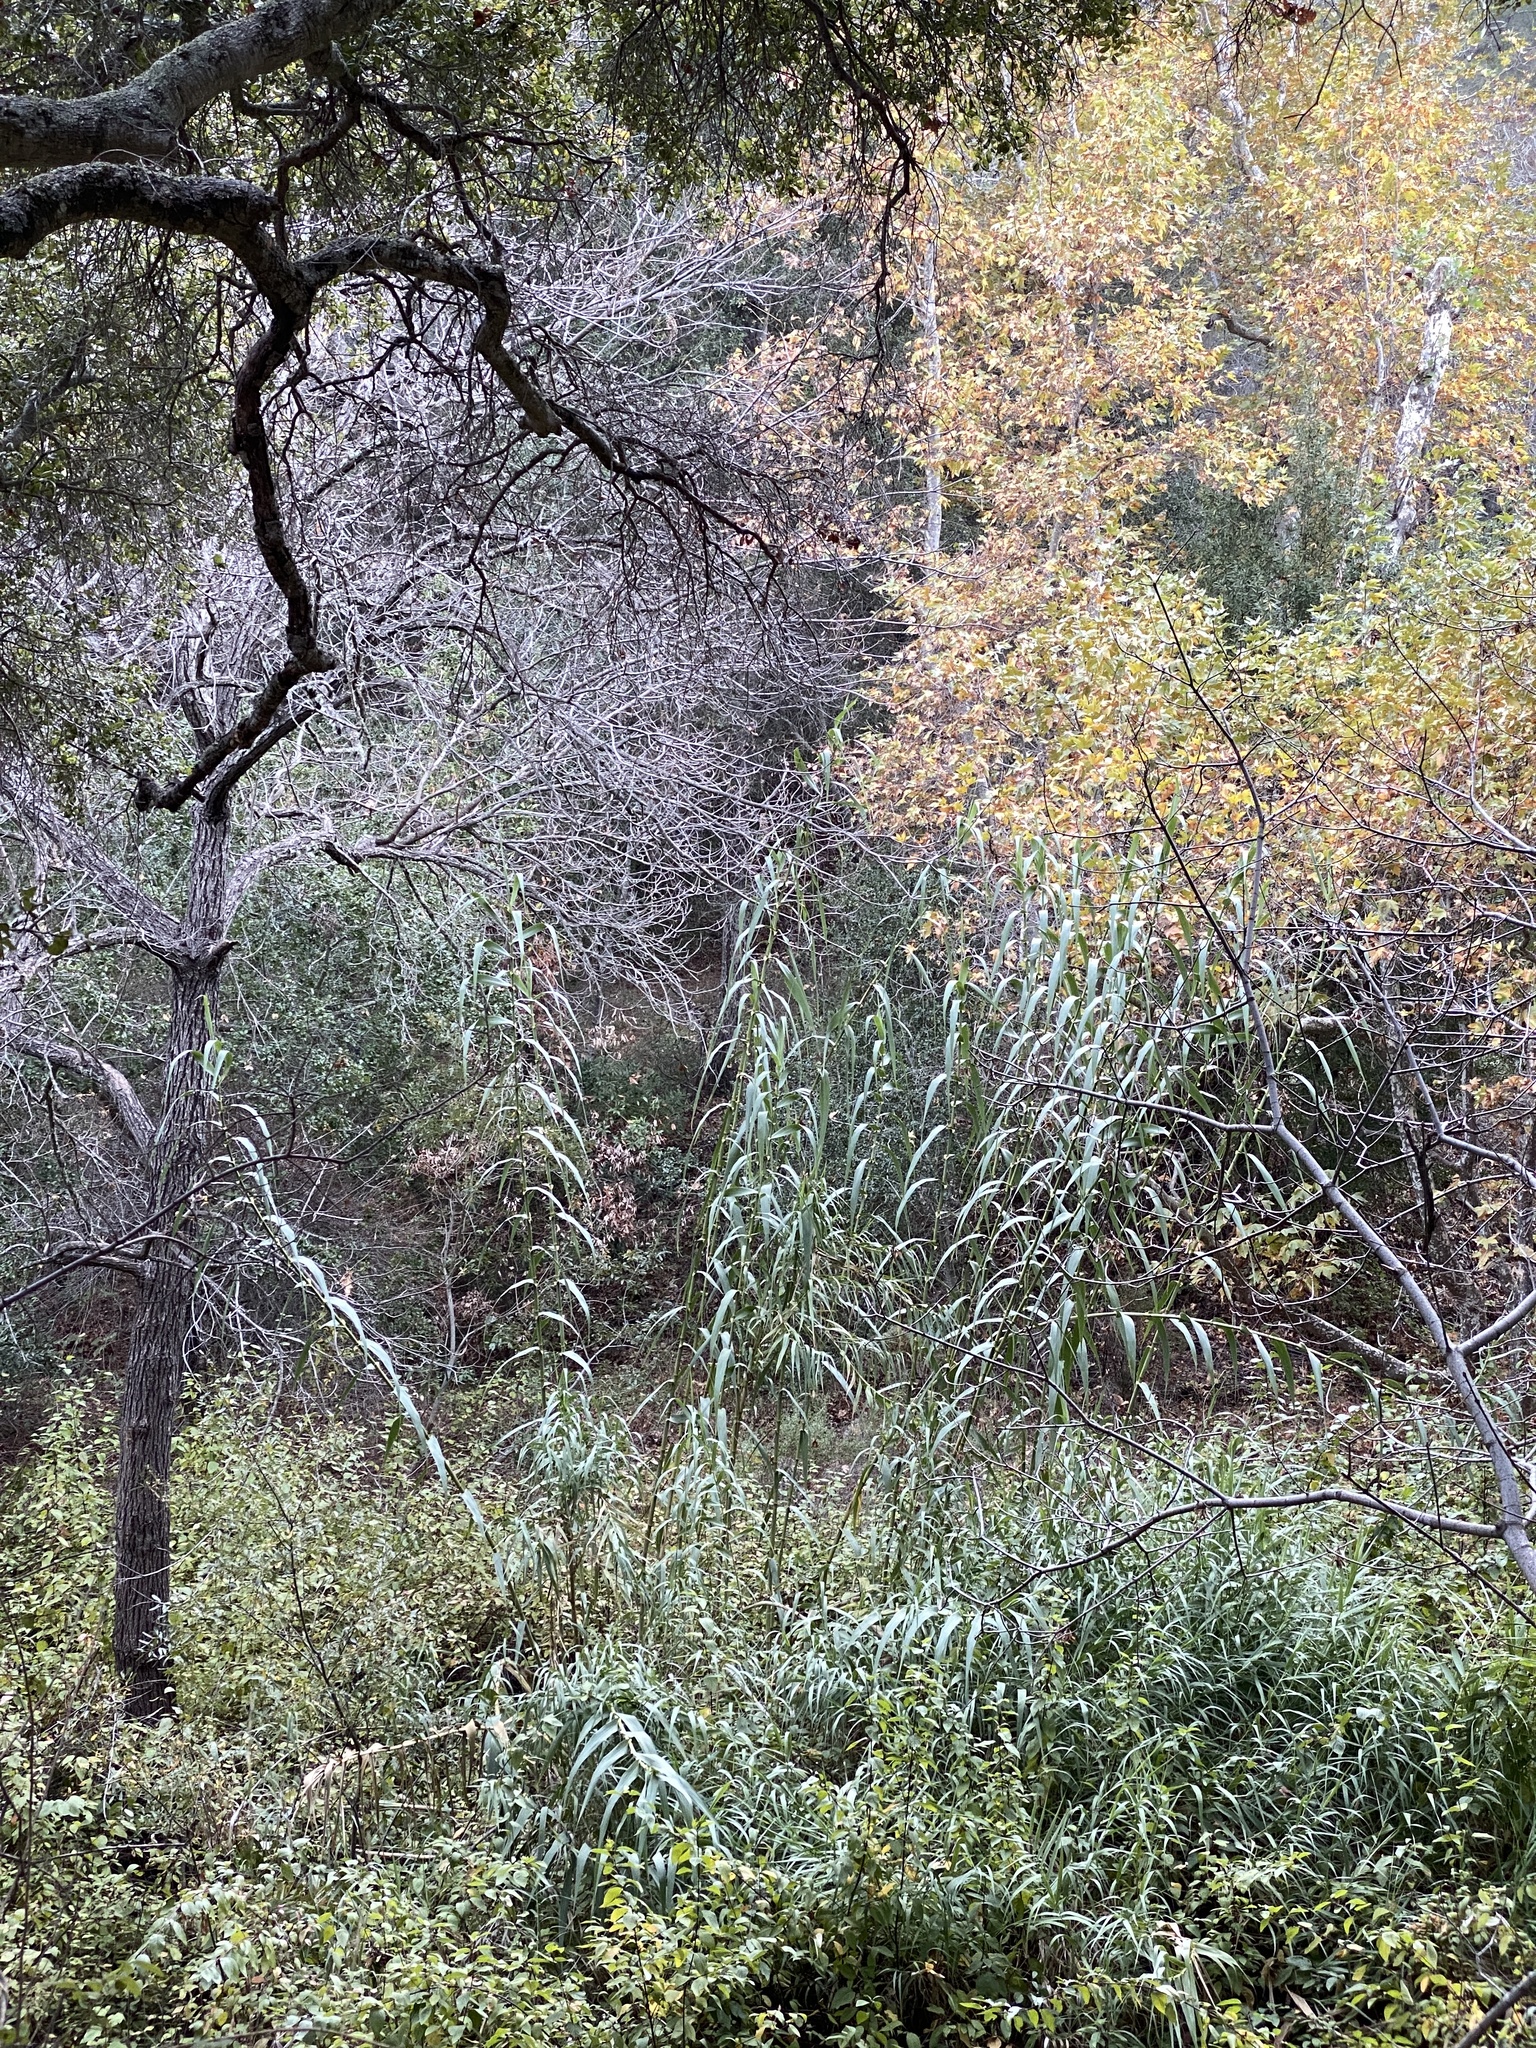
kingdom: Plantae
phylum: Tracheophyta
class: Liliopsida
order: Poales
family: Poaceae
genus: Arundo
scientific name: Arundo donax
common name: Giant reed
